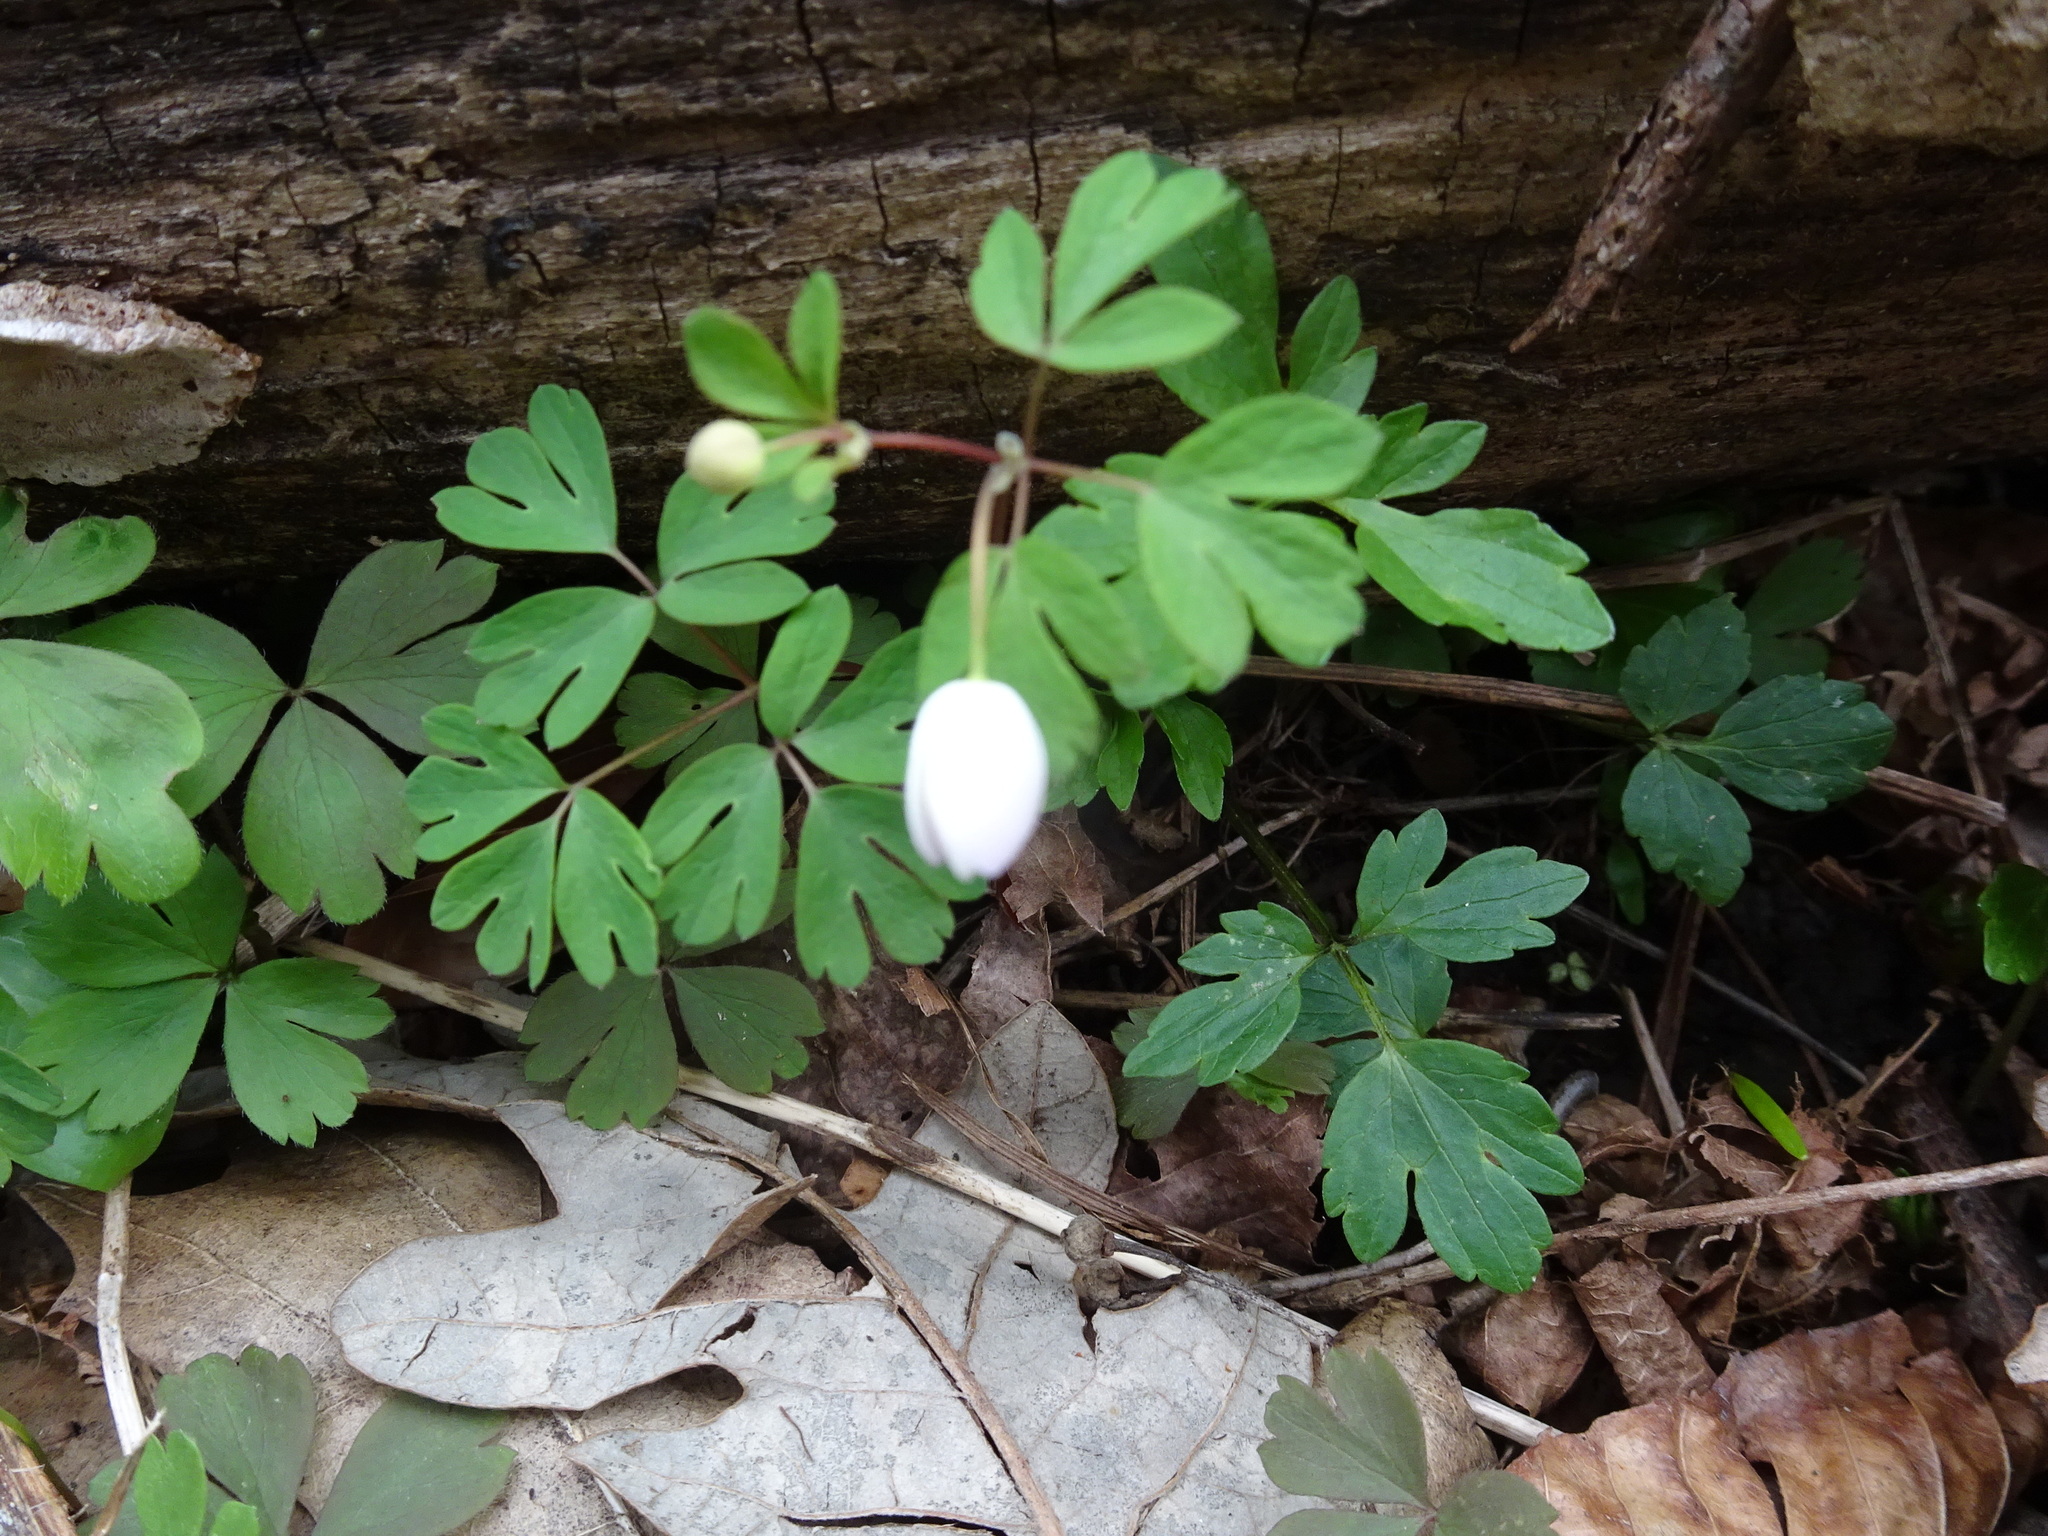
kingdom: Plantae
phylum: Tracheophyta
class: Magnoliopsida
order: Ranunculales
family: Ranunculaceae
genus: Enemion
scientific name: Enemion biternatum
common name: Eastern false rue-anemone
